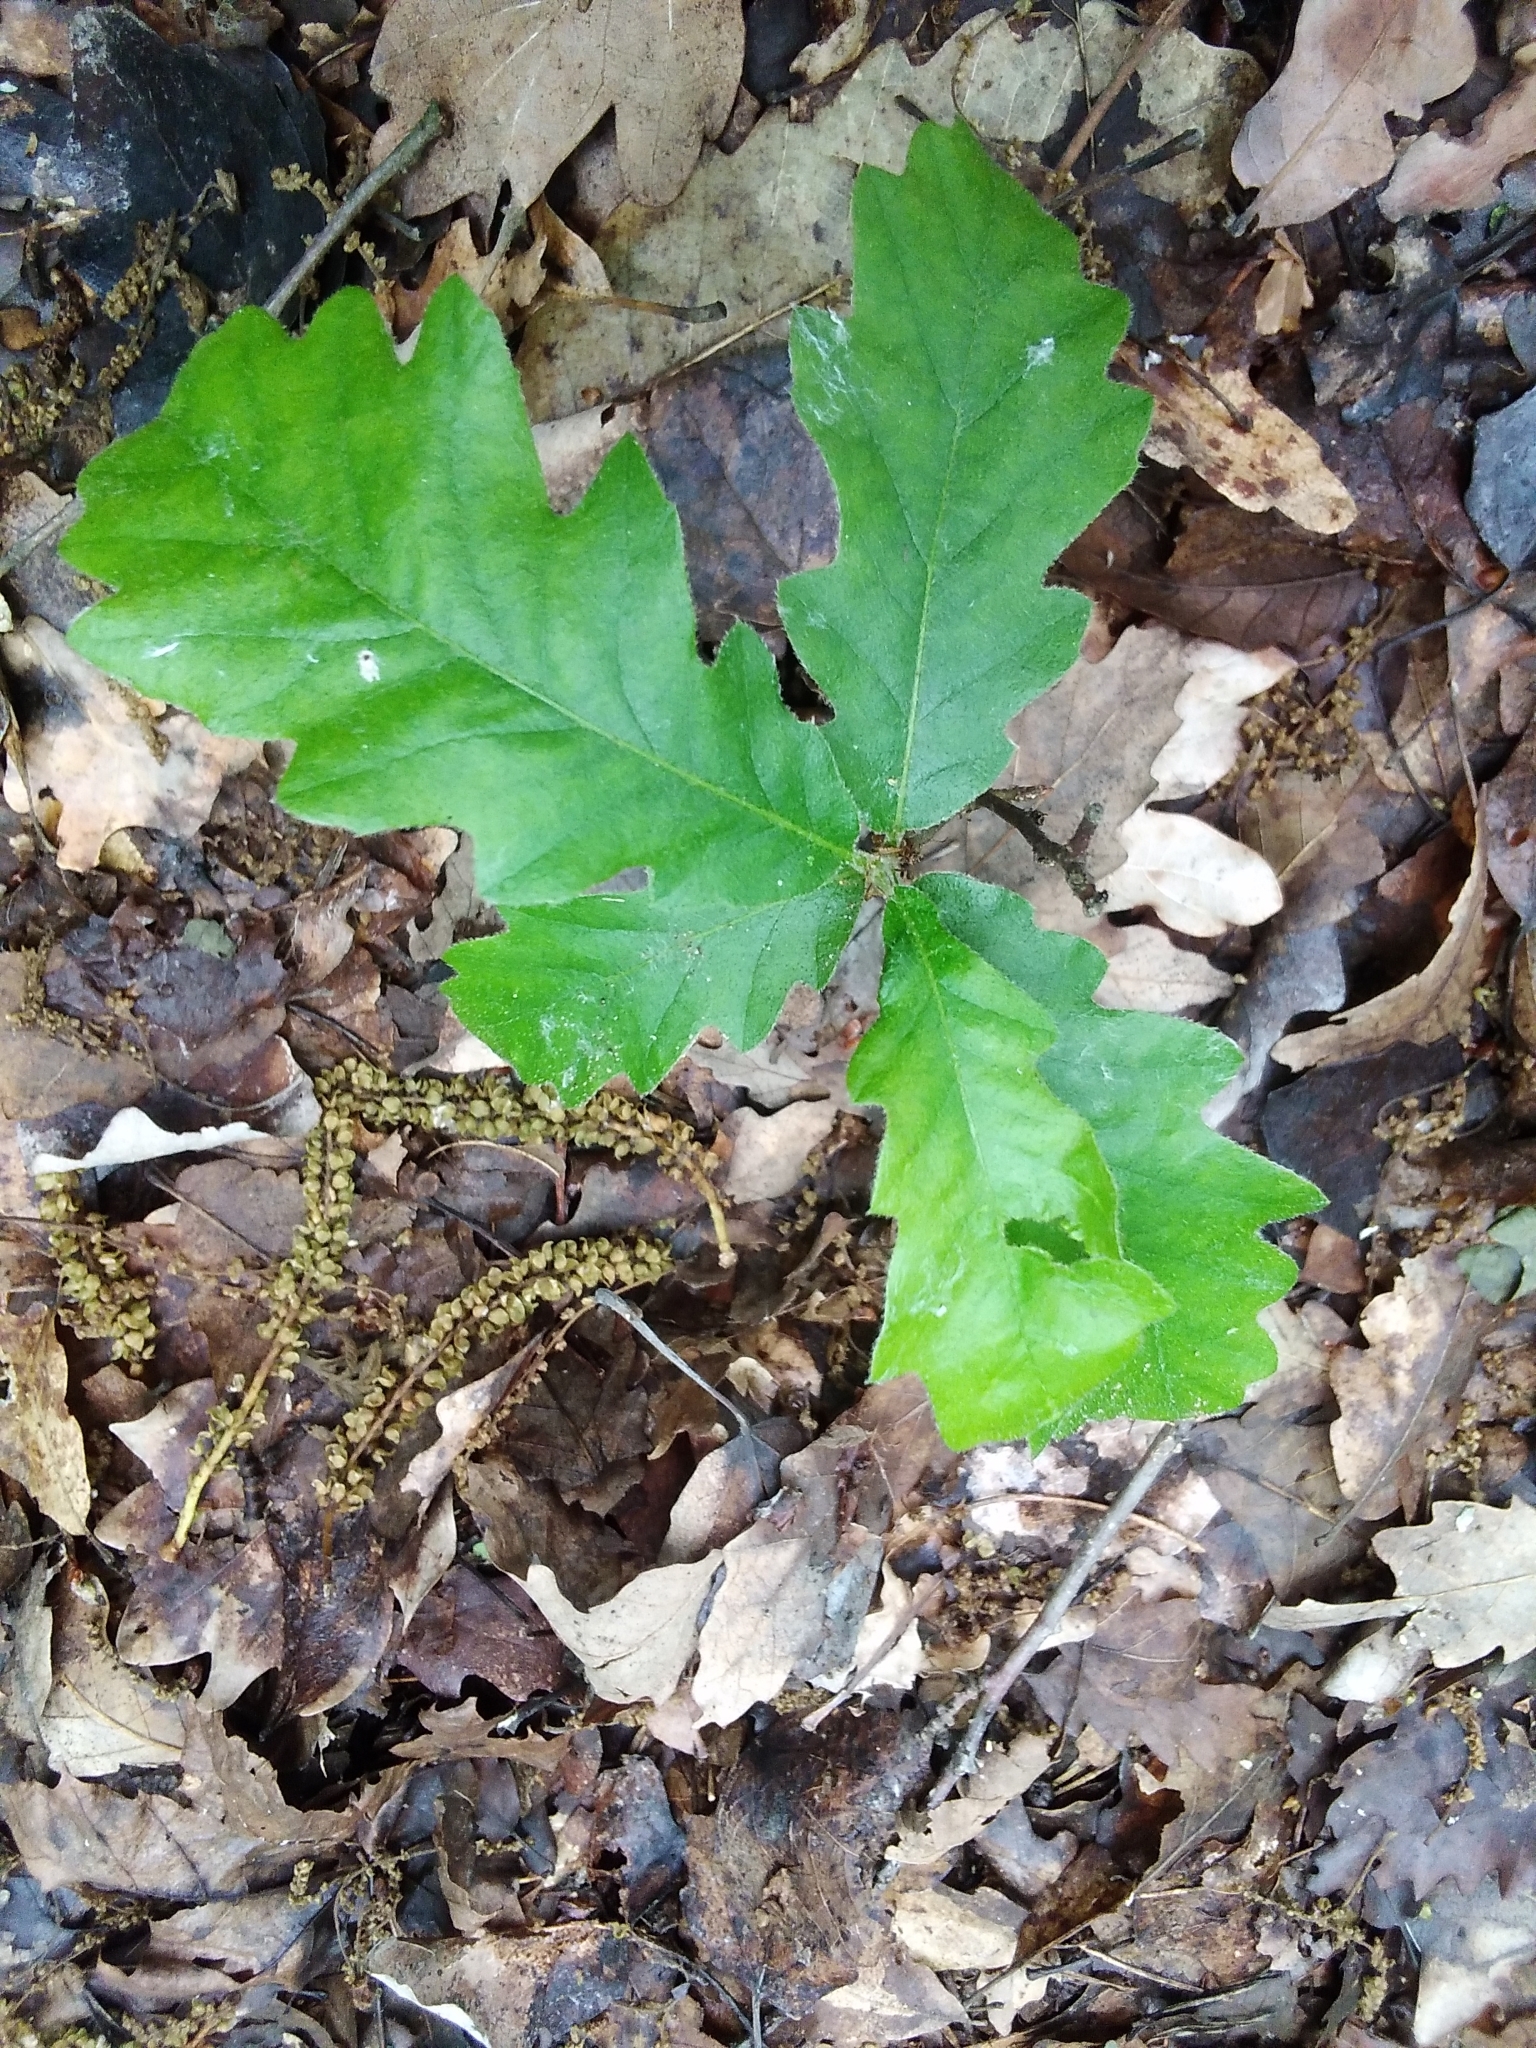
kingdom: Plantae
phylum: Tracheophyta
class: Magnoliopsida
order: Fagales
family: Fagaceae
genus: Quercus
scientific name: Quercus cerris
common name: Turkey oak
